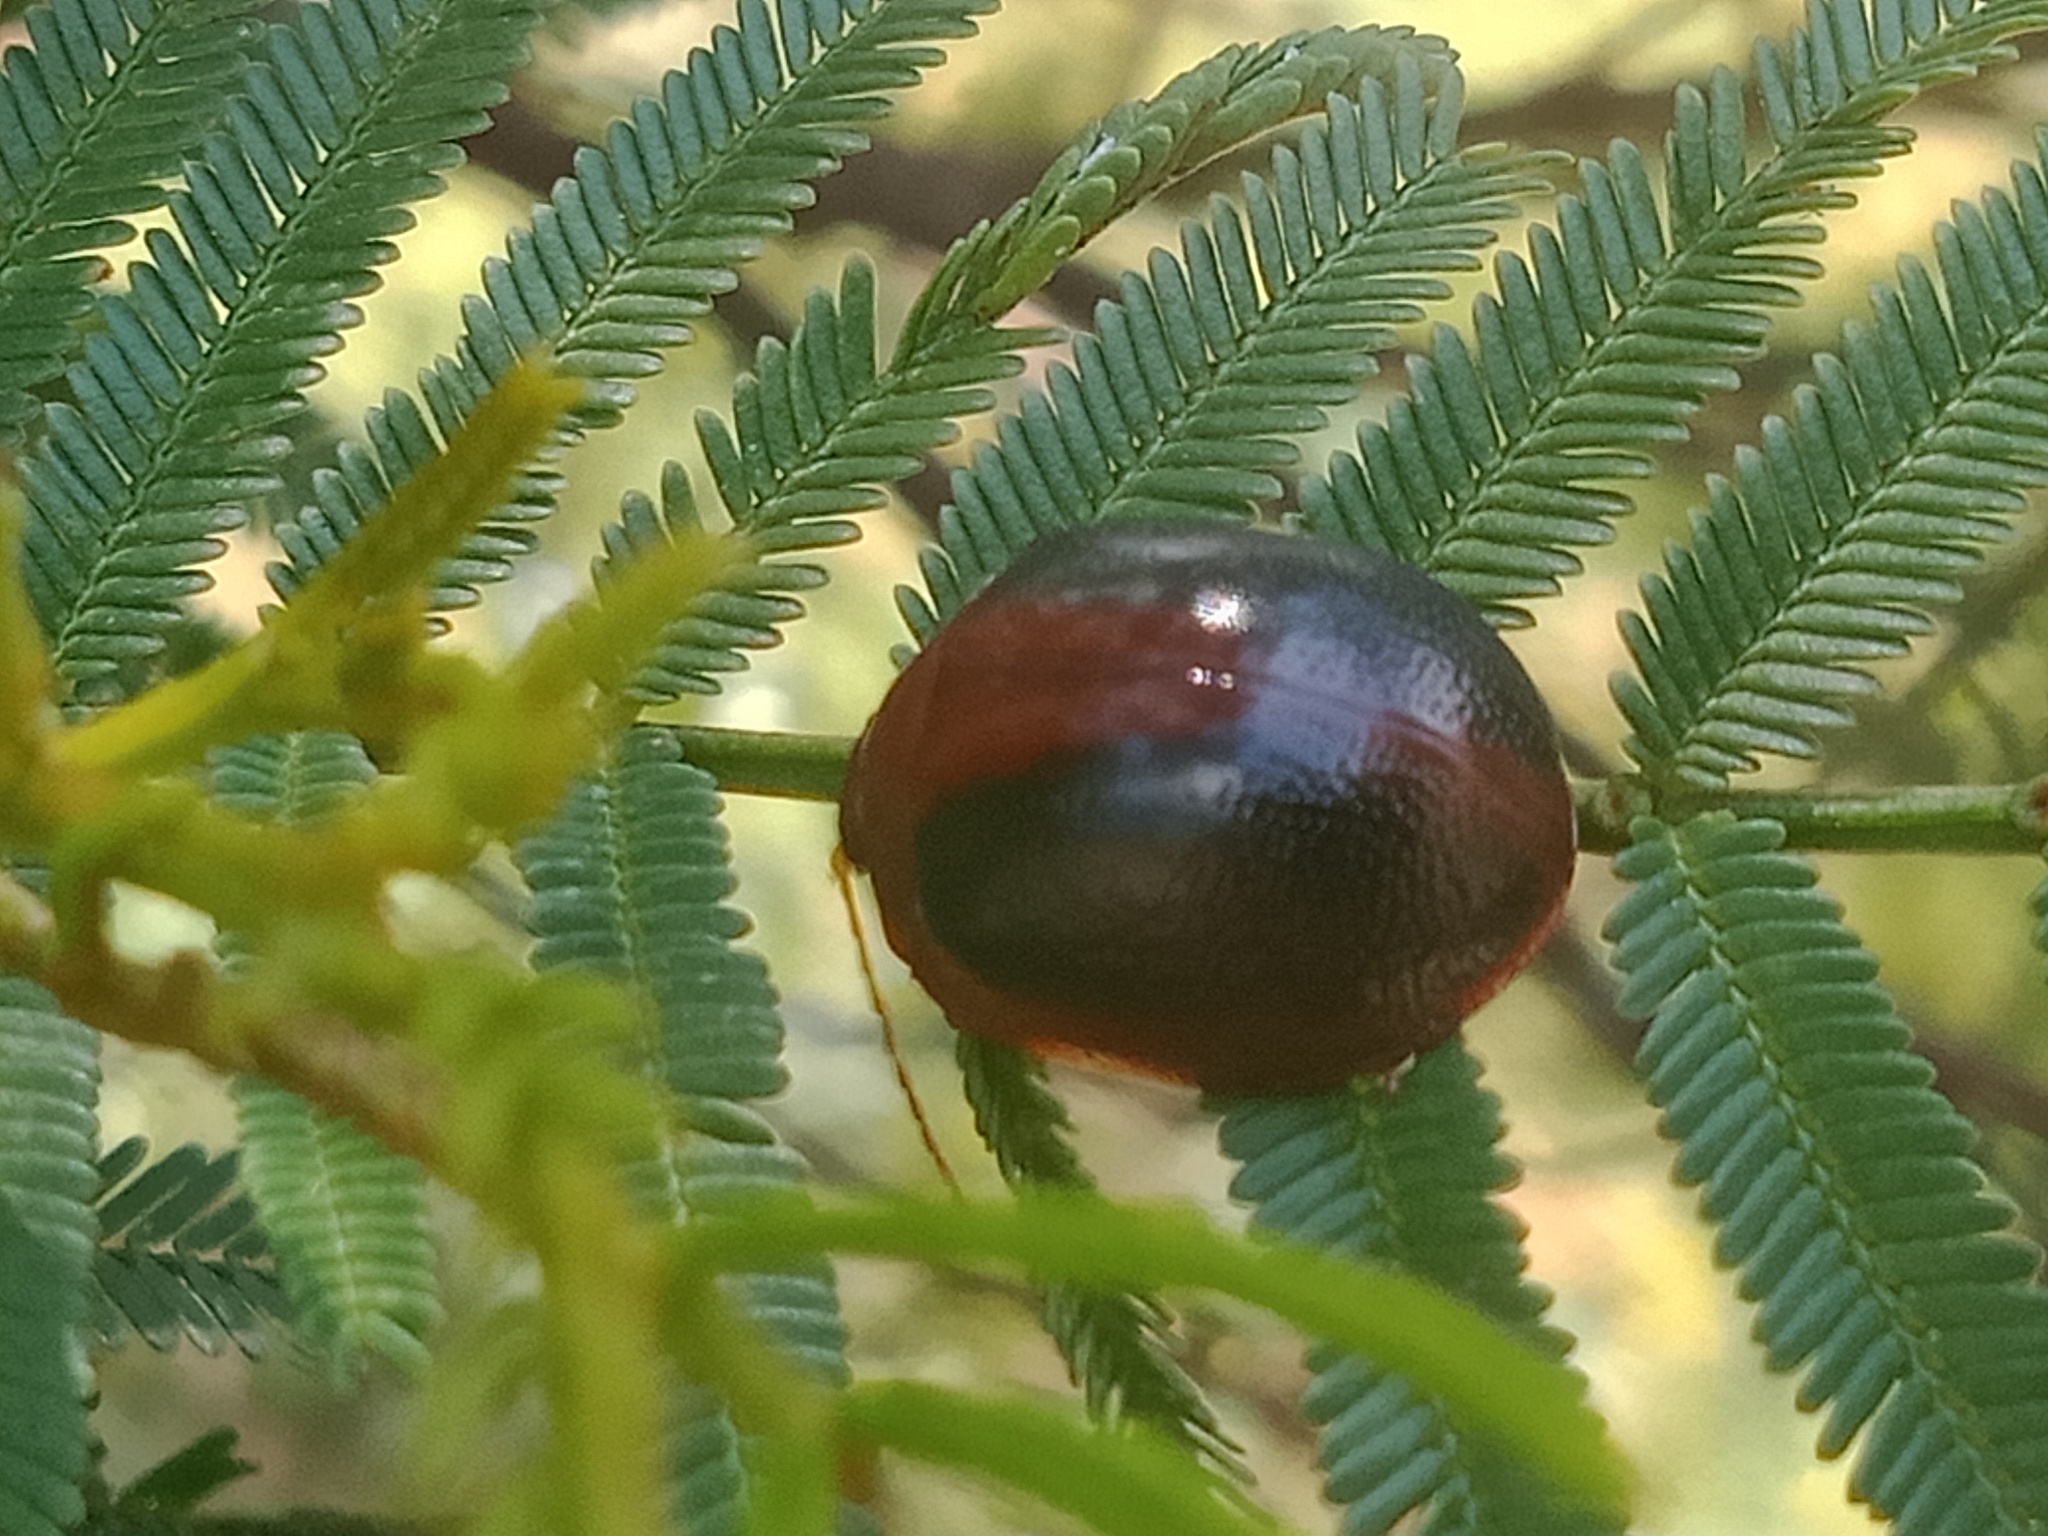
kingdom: Animalia
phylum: Arthropoda
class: Insecta
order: Coleoptera
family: Chrysomelidae
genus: Dicranosterna
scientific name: Dicranosterna
